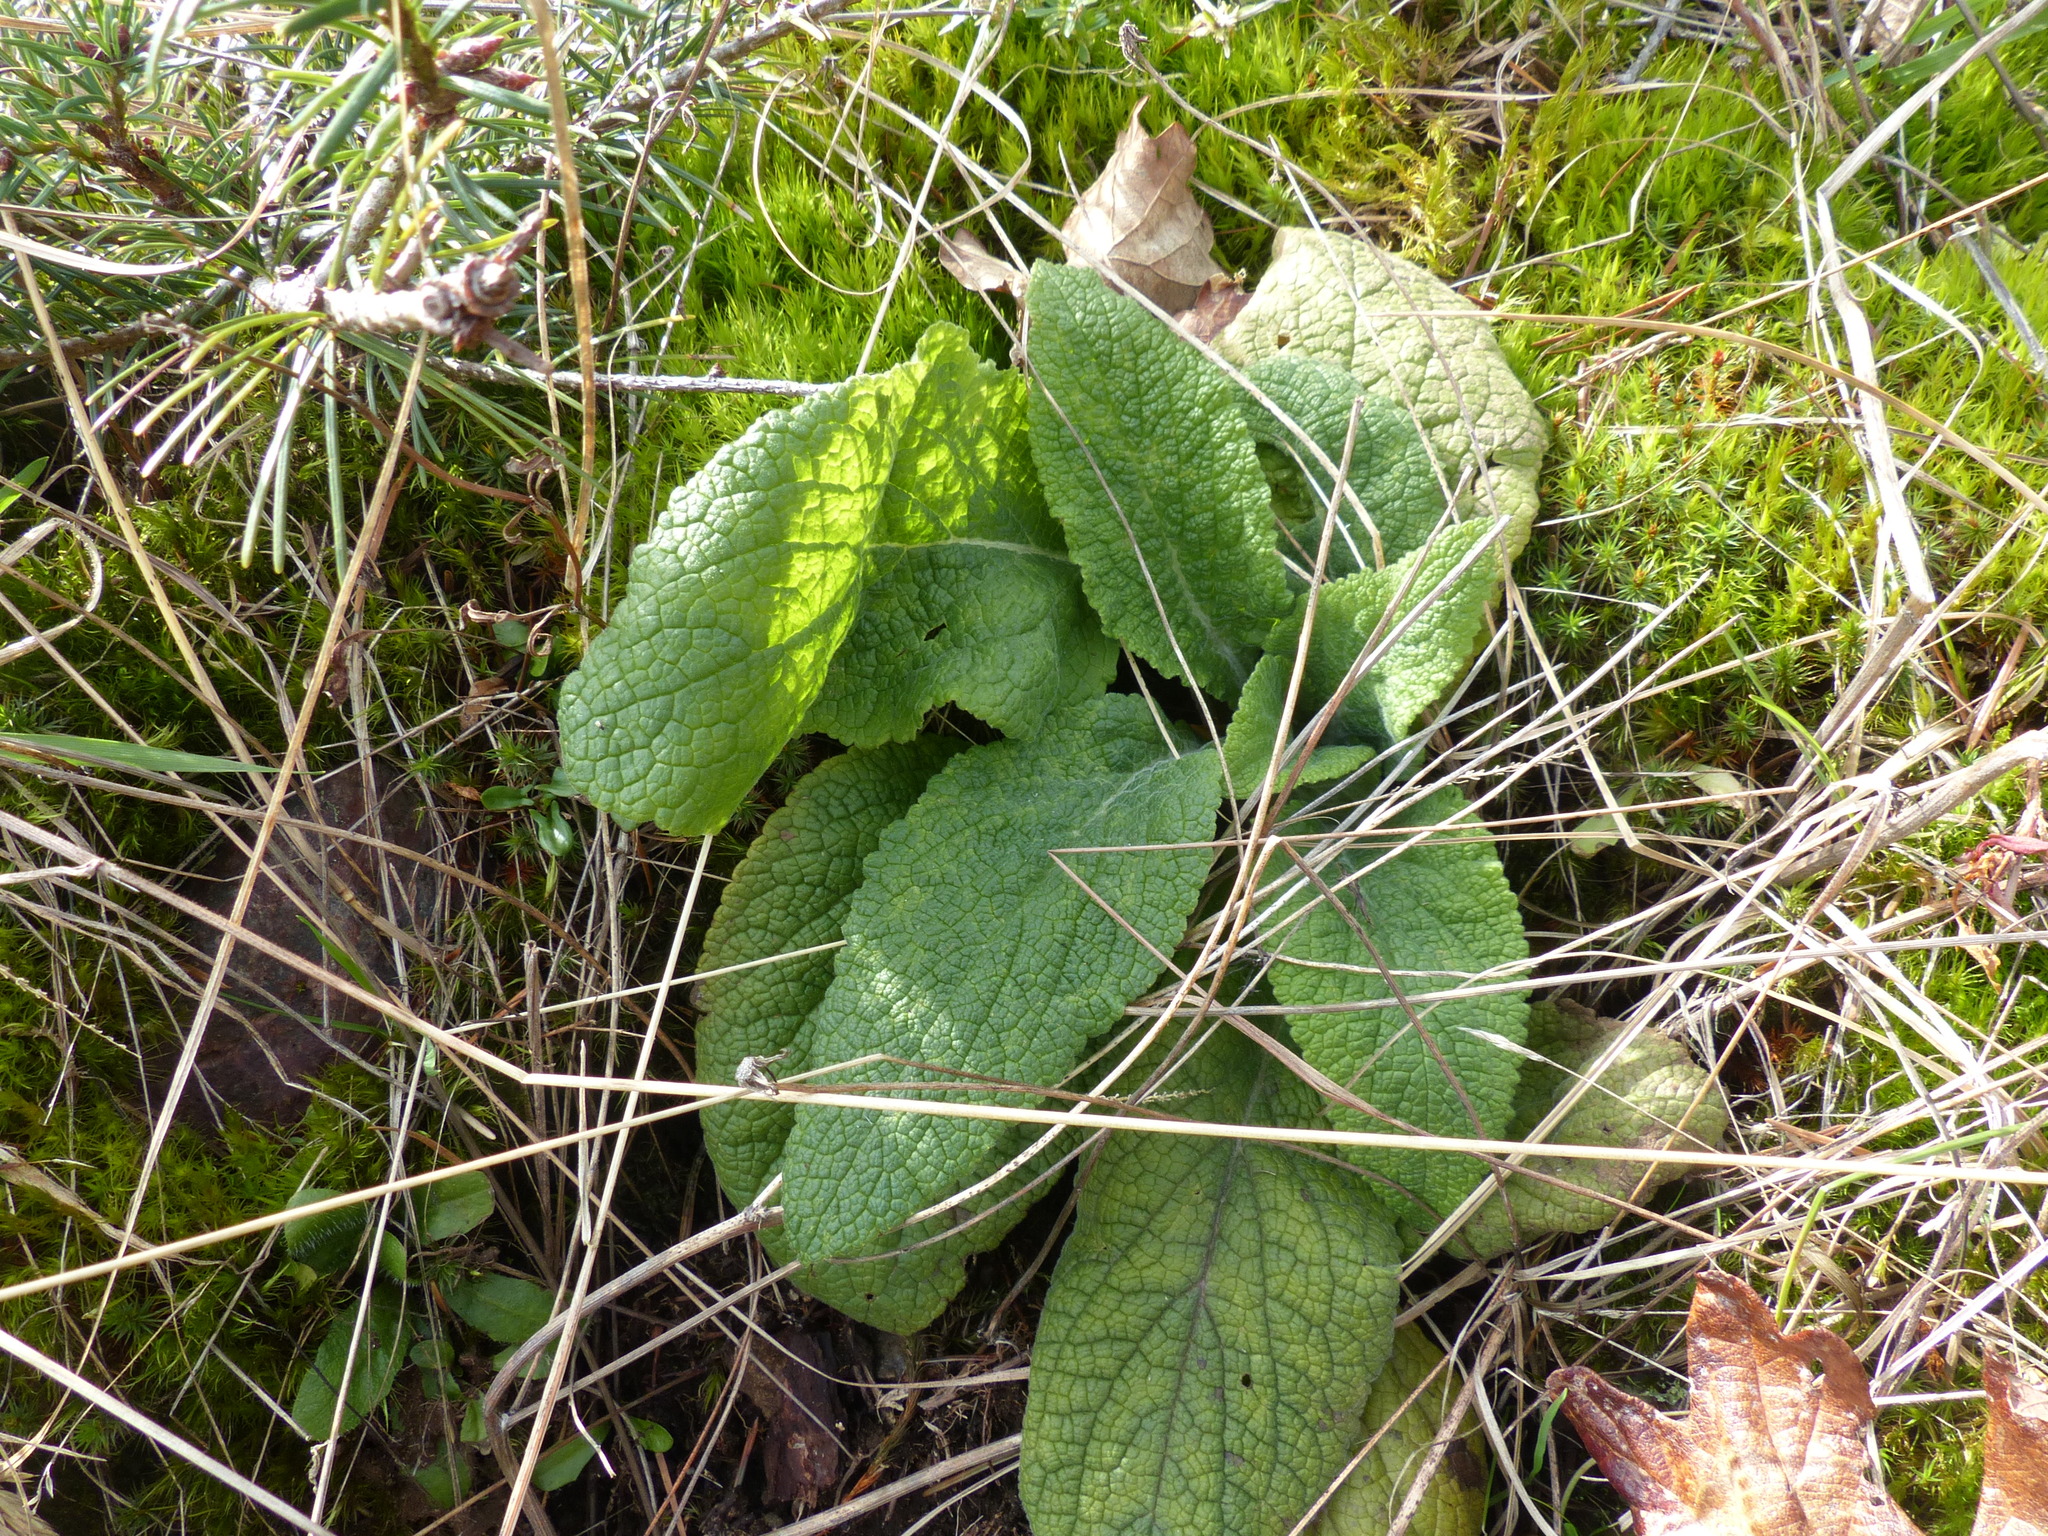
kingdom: Plantae
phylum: Tracheophyta
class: Magnoliopsida
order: Lamiales
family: Plantaginaceae
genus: Digitalis
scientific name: Digitalis purpurea
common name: Foxglove
